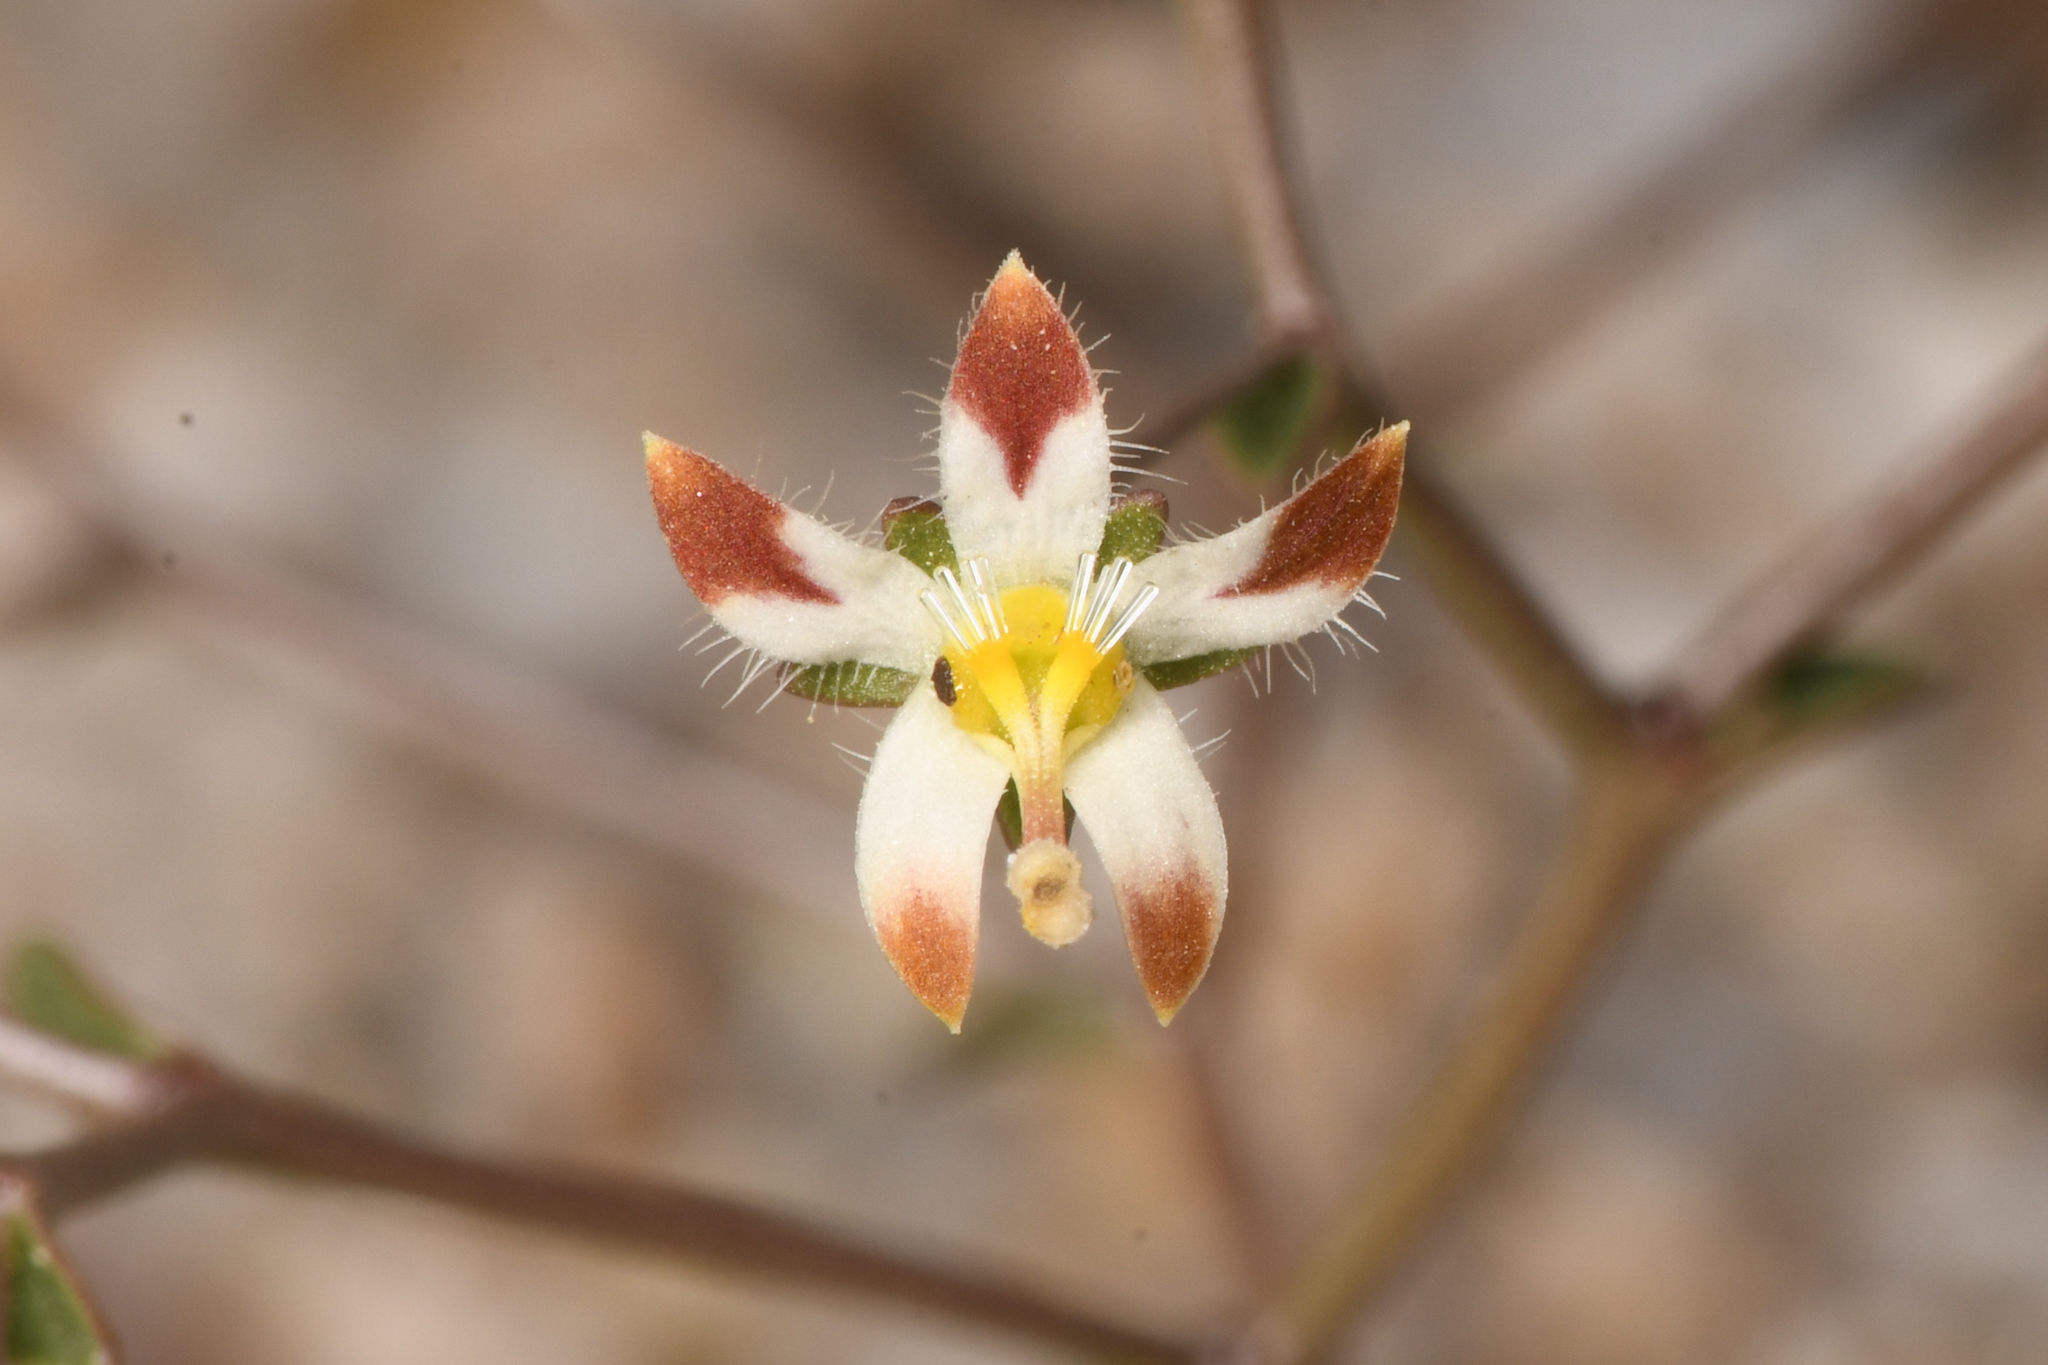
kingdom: Plantae
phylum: Tracheophyta
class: Magnoliopsida
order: Asterales
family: Campanulaceae
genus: Nemacladus
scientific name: Nemacladus rubescens
